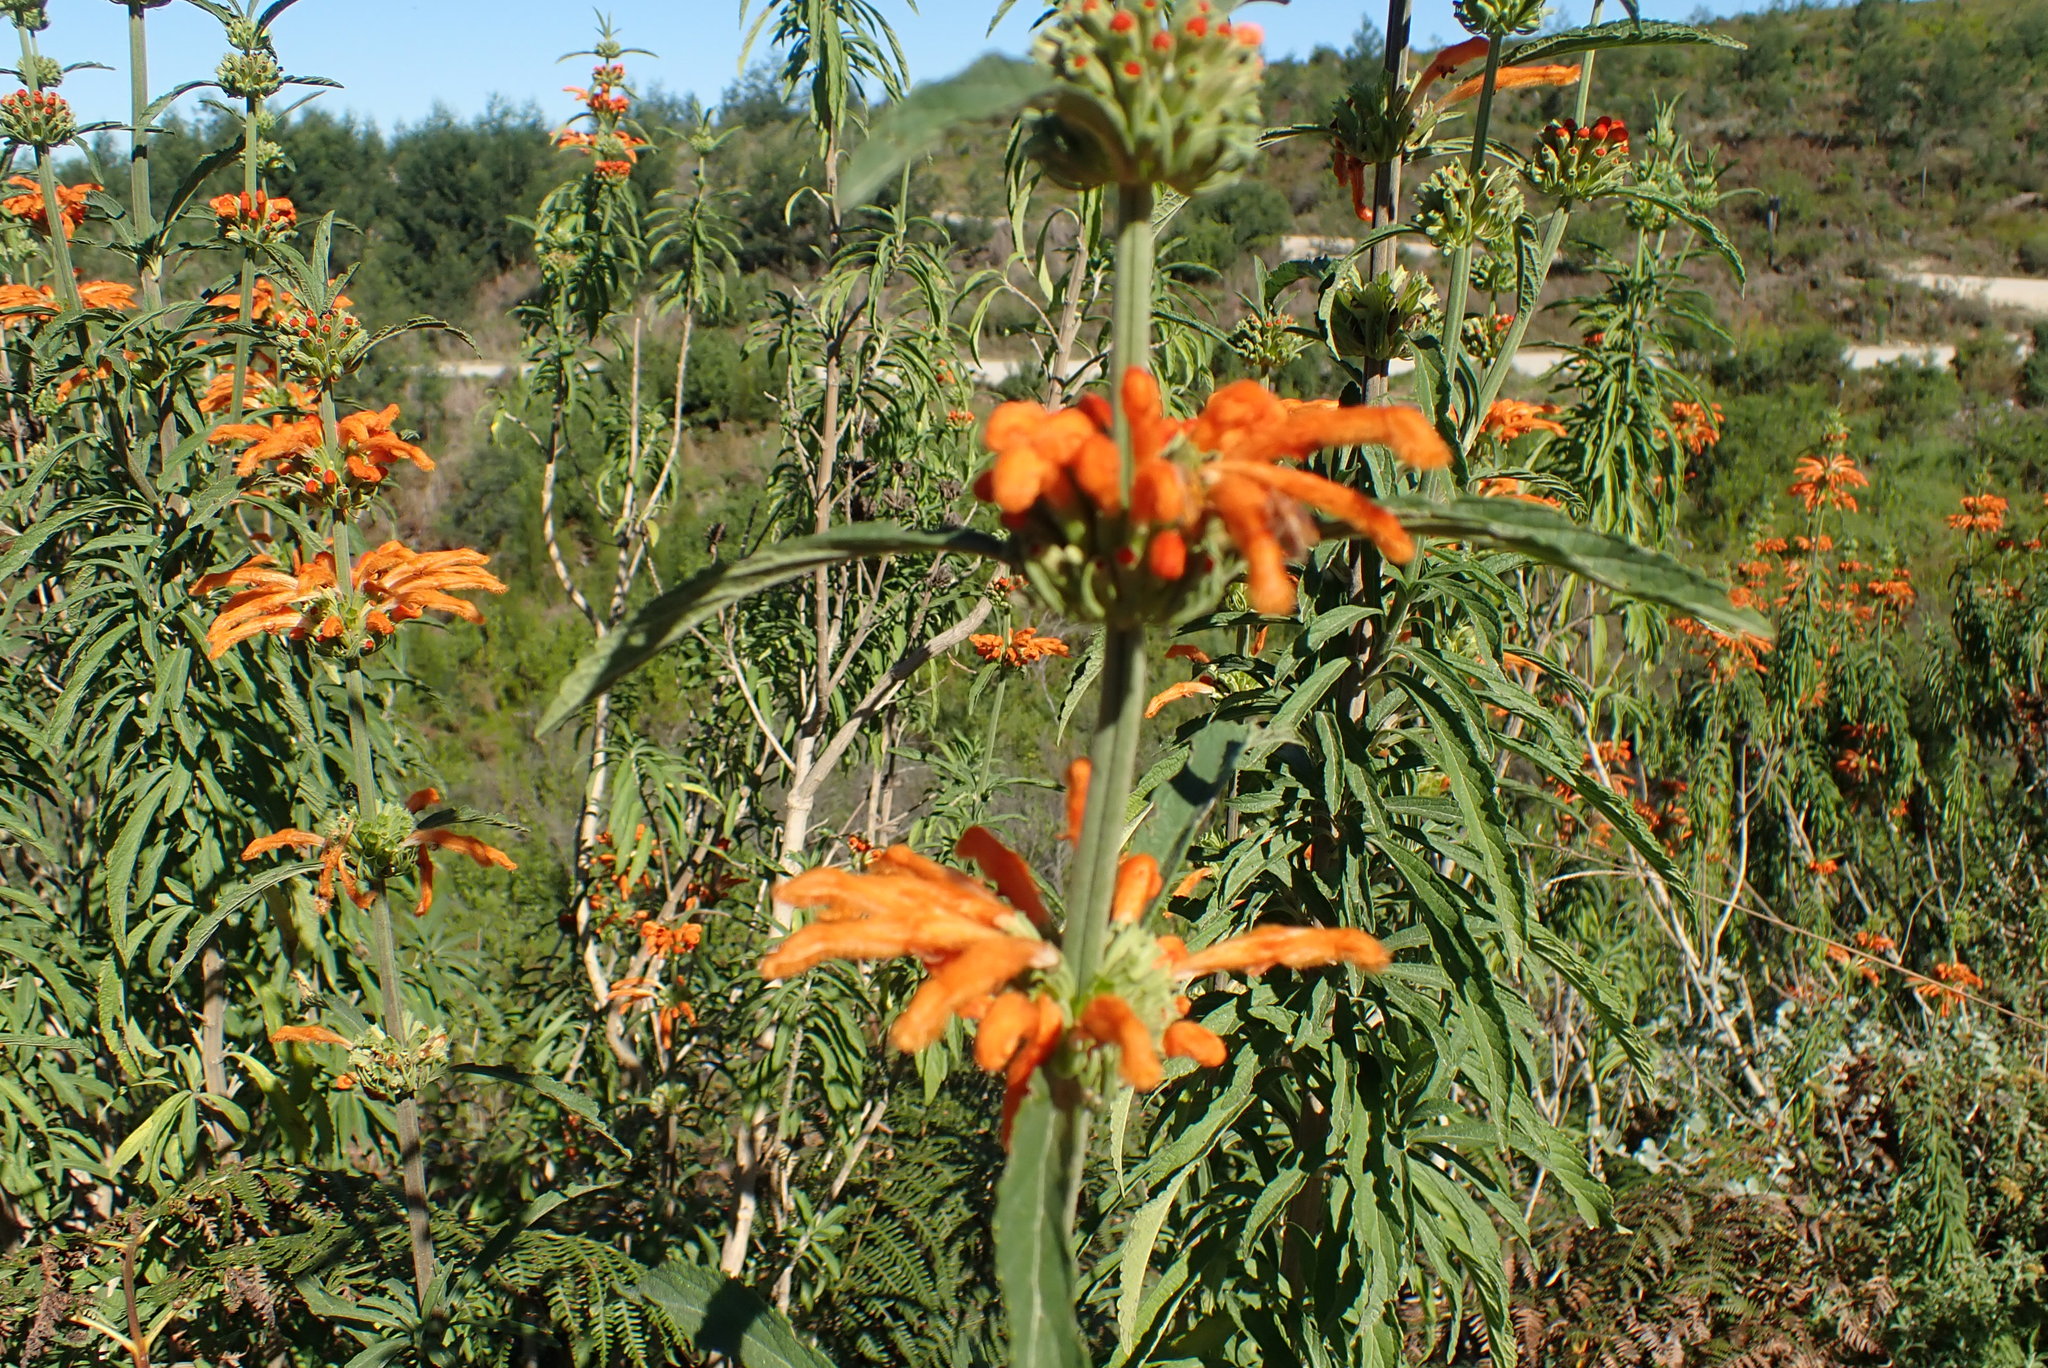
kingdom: Plantae
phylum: Tracheophyta
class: Magnoliopsida
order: Lamiales
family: Lamiaceae
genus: Leonotis
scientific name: Leonotis leonurus
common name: Lion's ear
